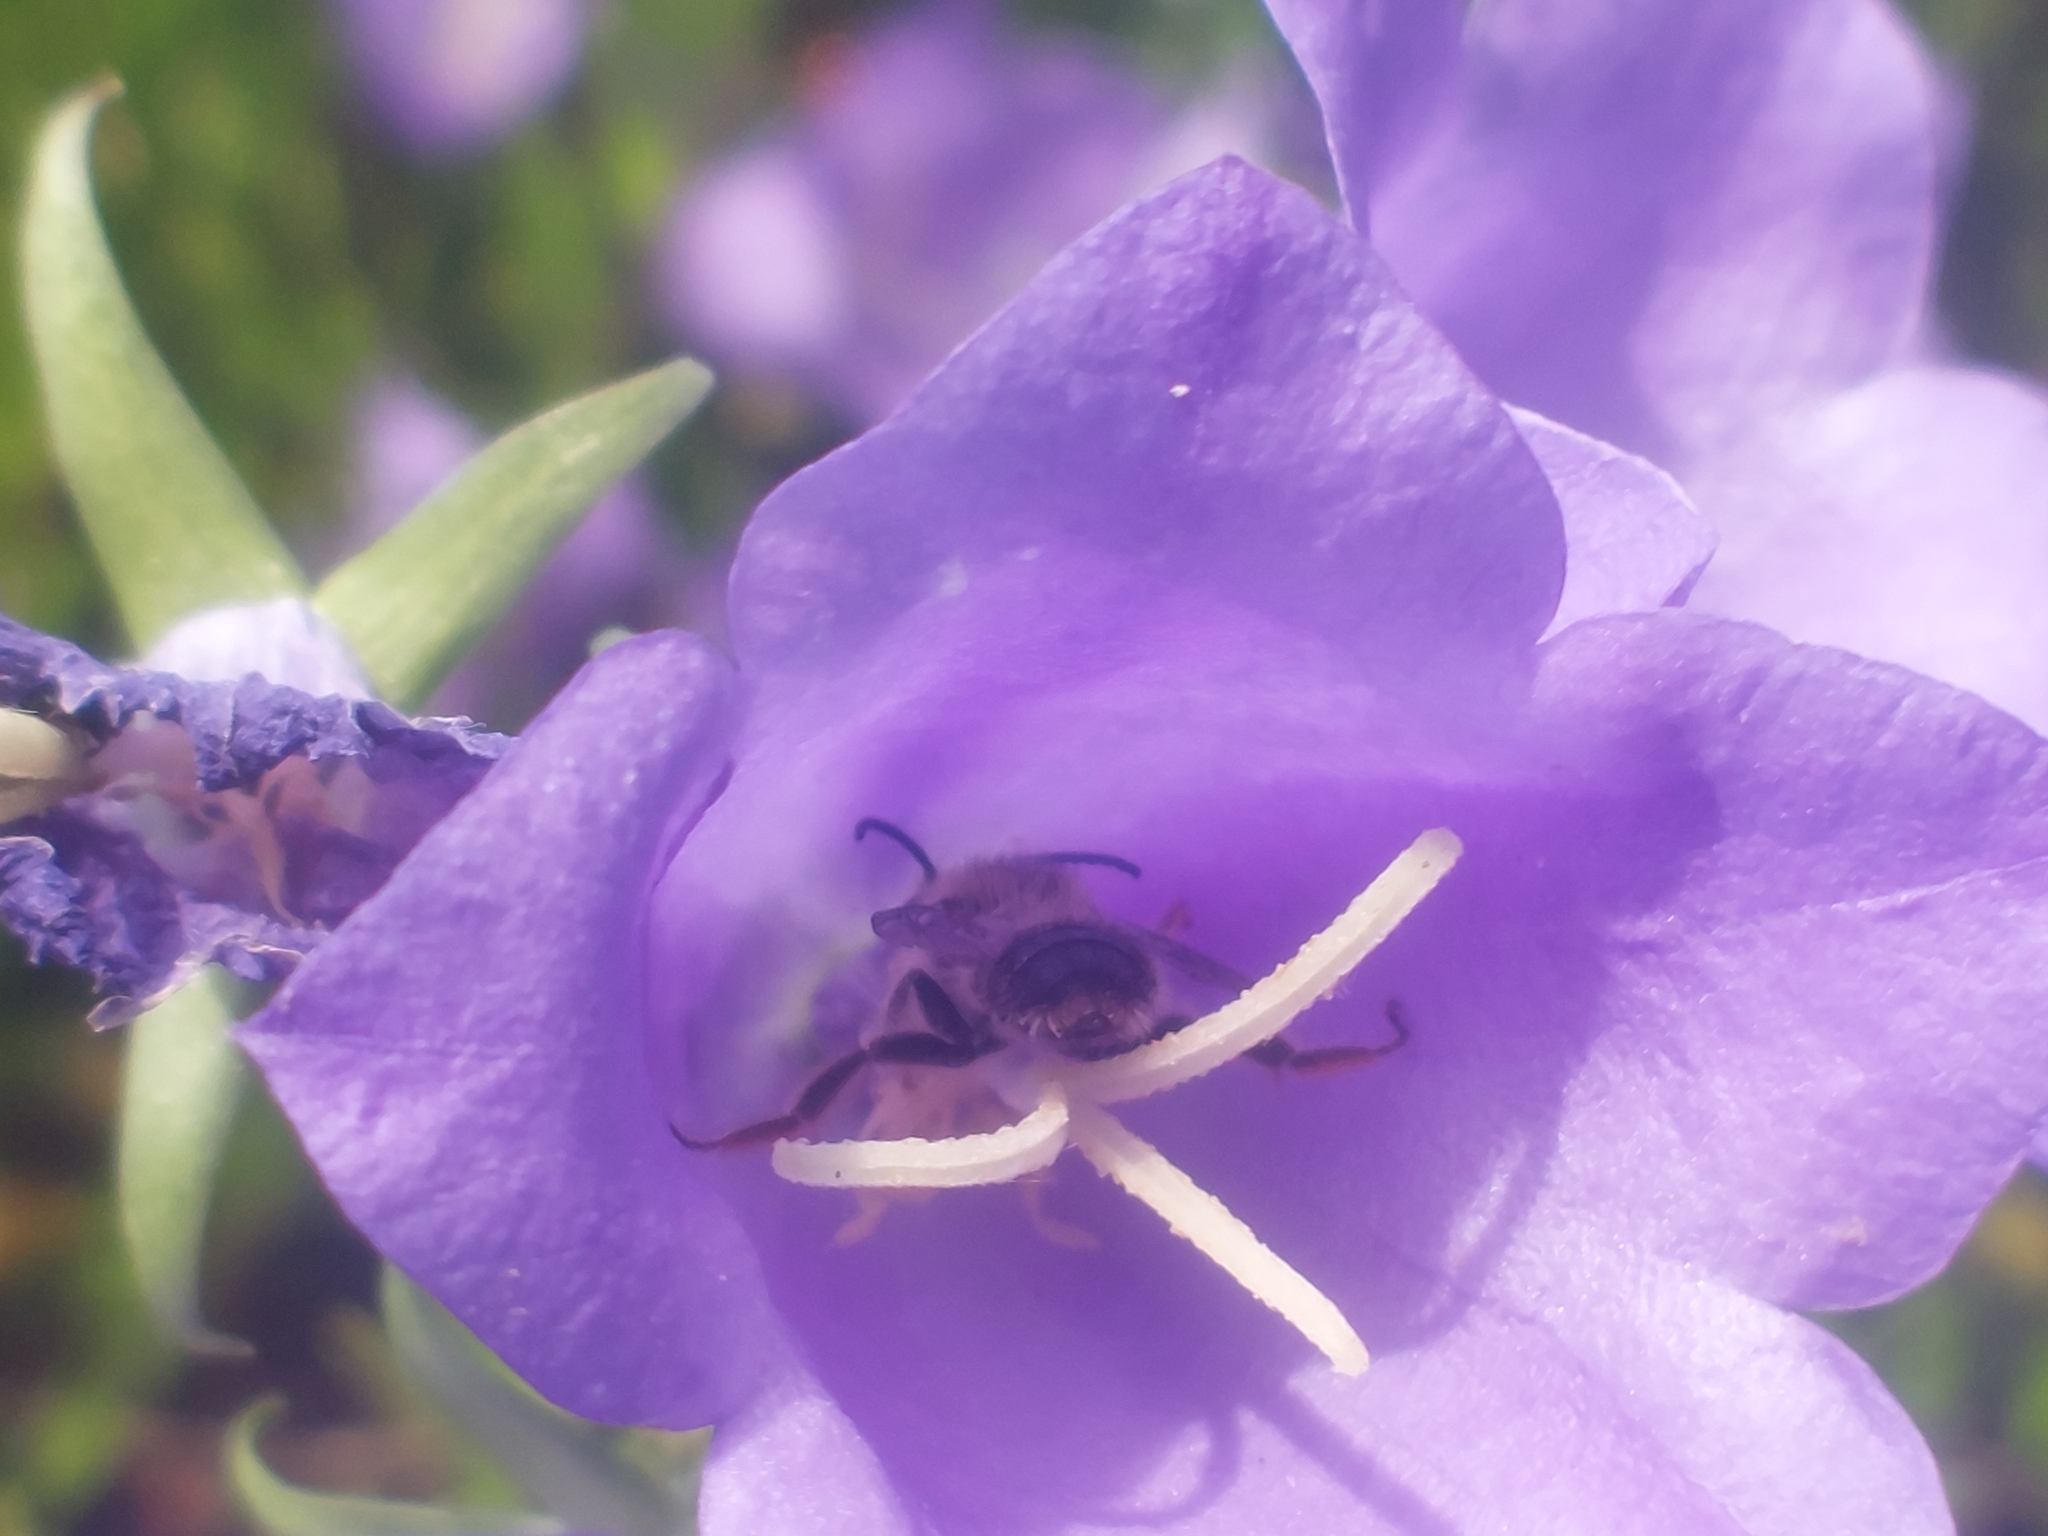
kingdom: Plantae
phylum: Tracheophyta
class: Magnoliopsida
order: Asterales
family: Campanulaceae
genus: Campanula
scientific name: Campanula persicifolia
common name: Peach-leaved bellflower
